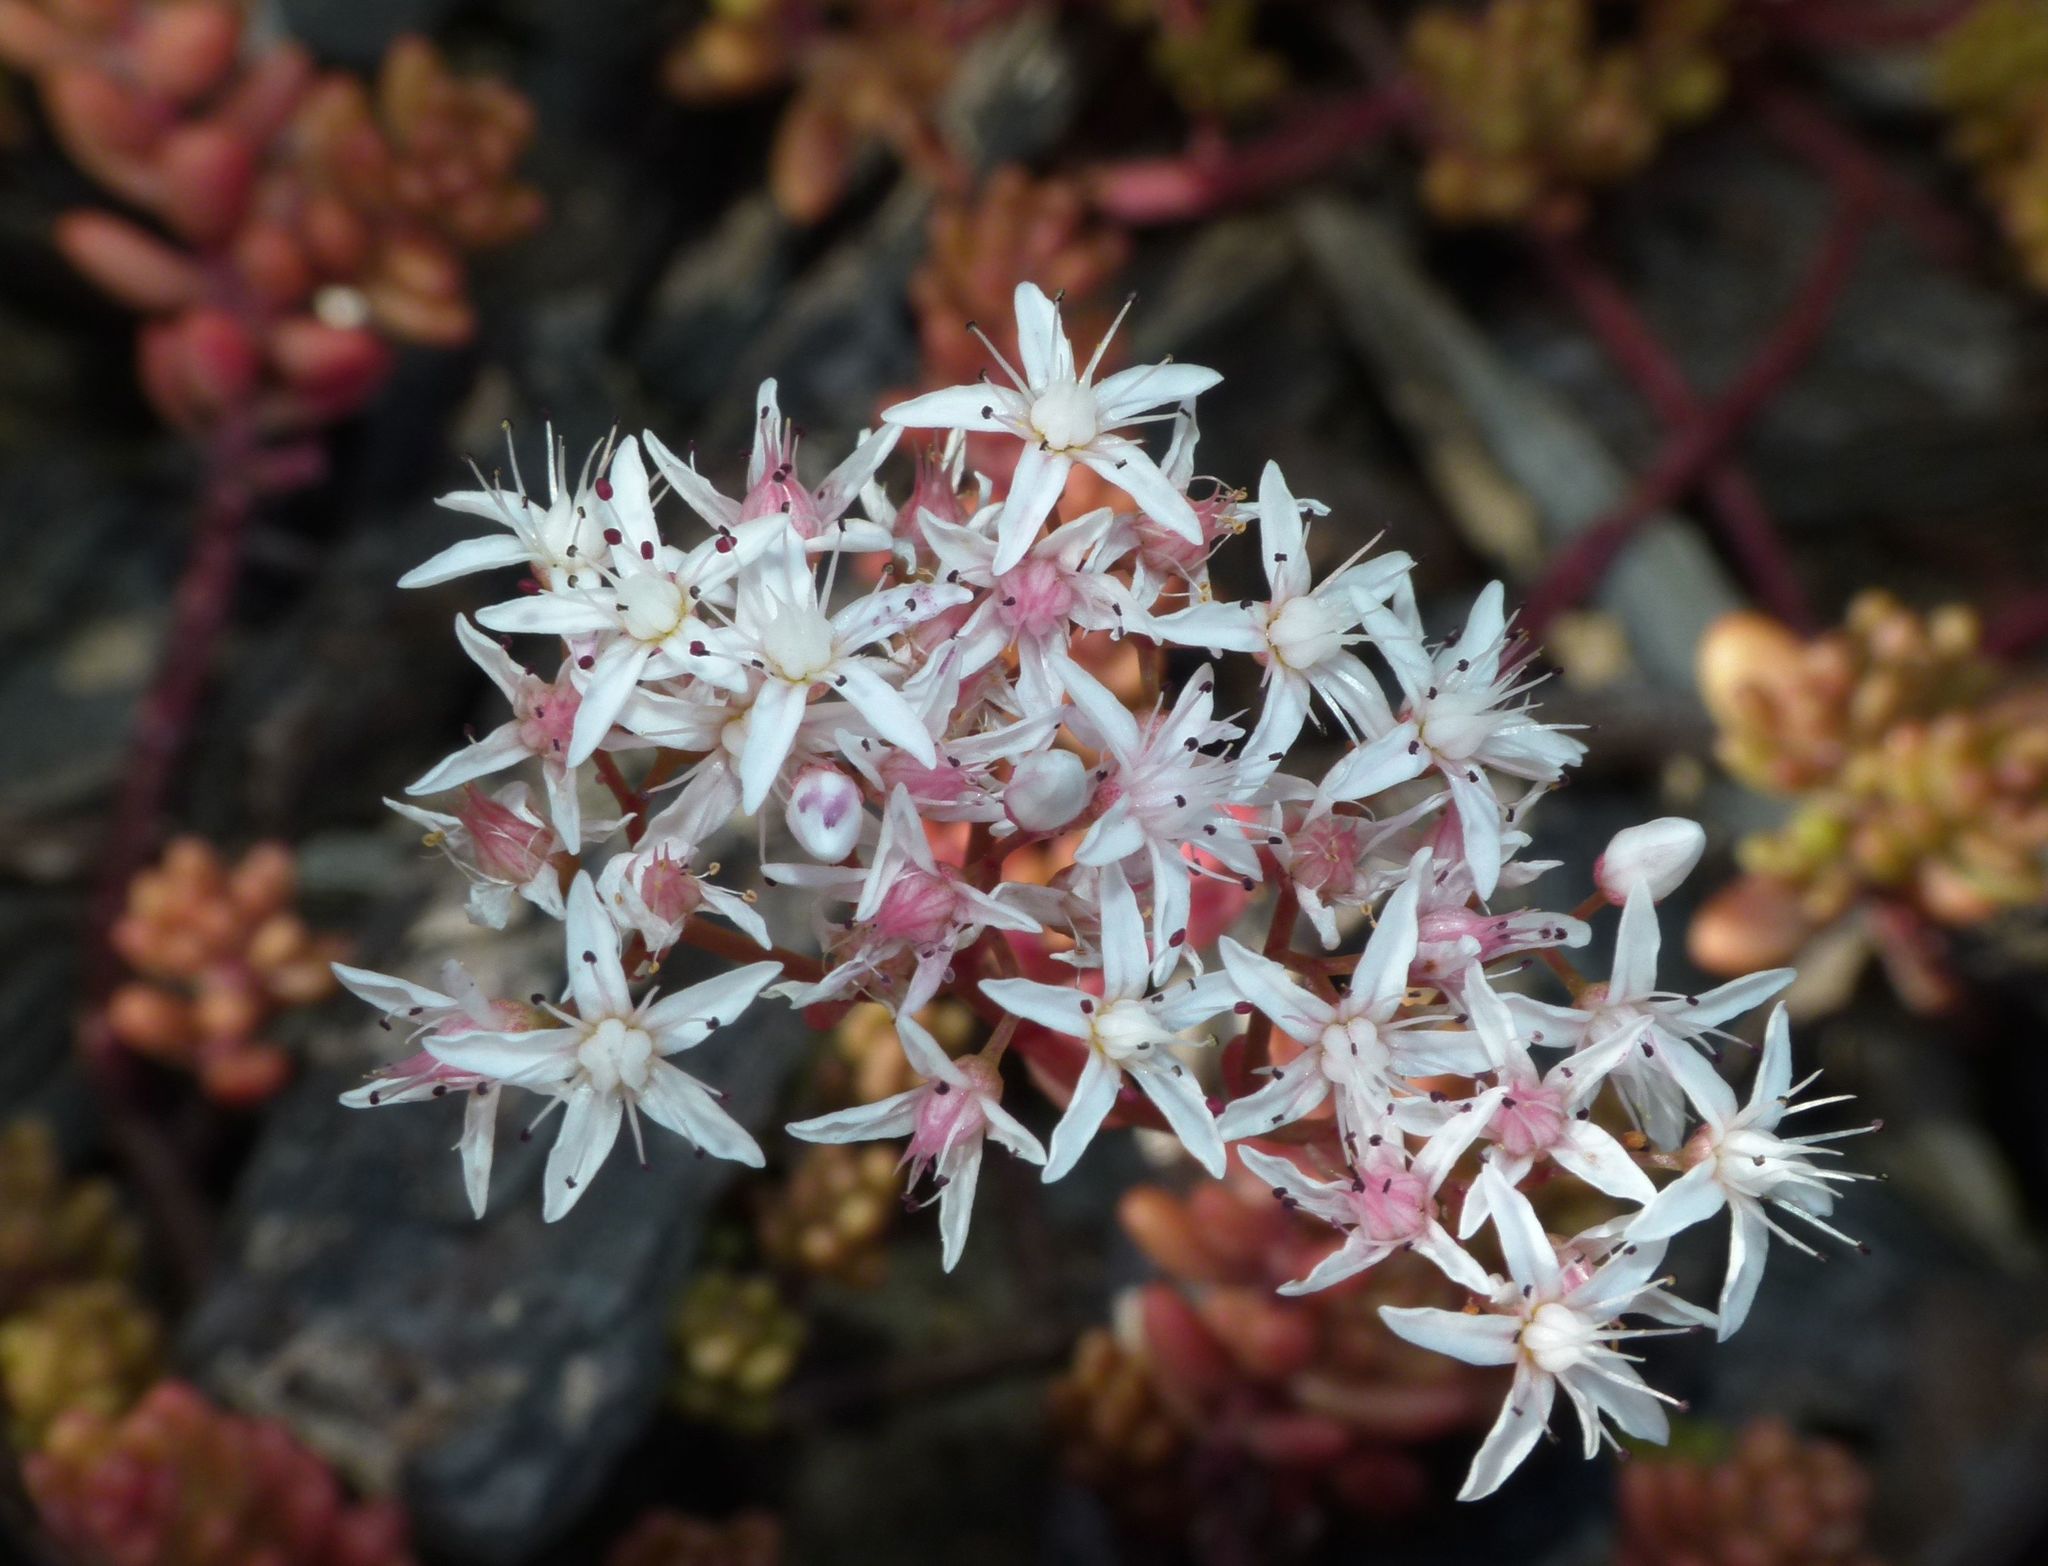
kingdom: Plantae
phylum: Tracheophyta
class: Magnoliopsida
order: Saxifragales
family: Crassulaceae
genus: Sedum
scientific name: Sedum album
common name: White stonecrop
